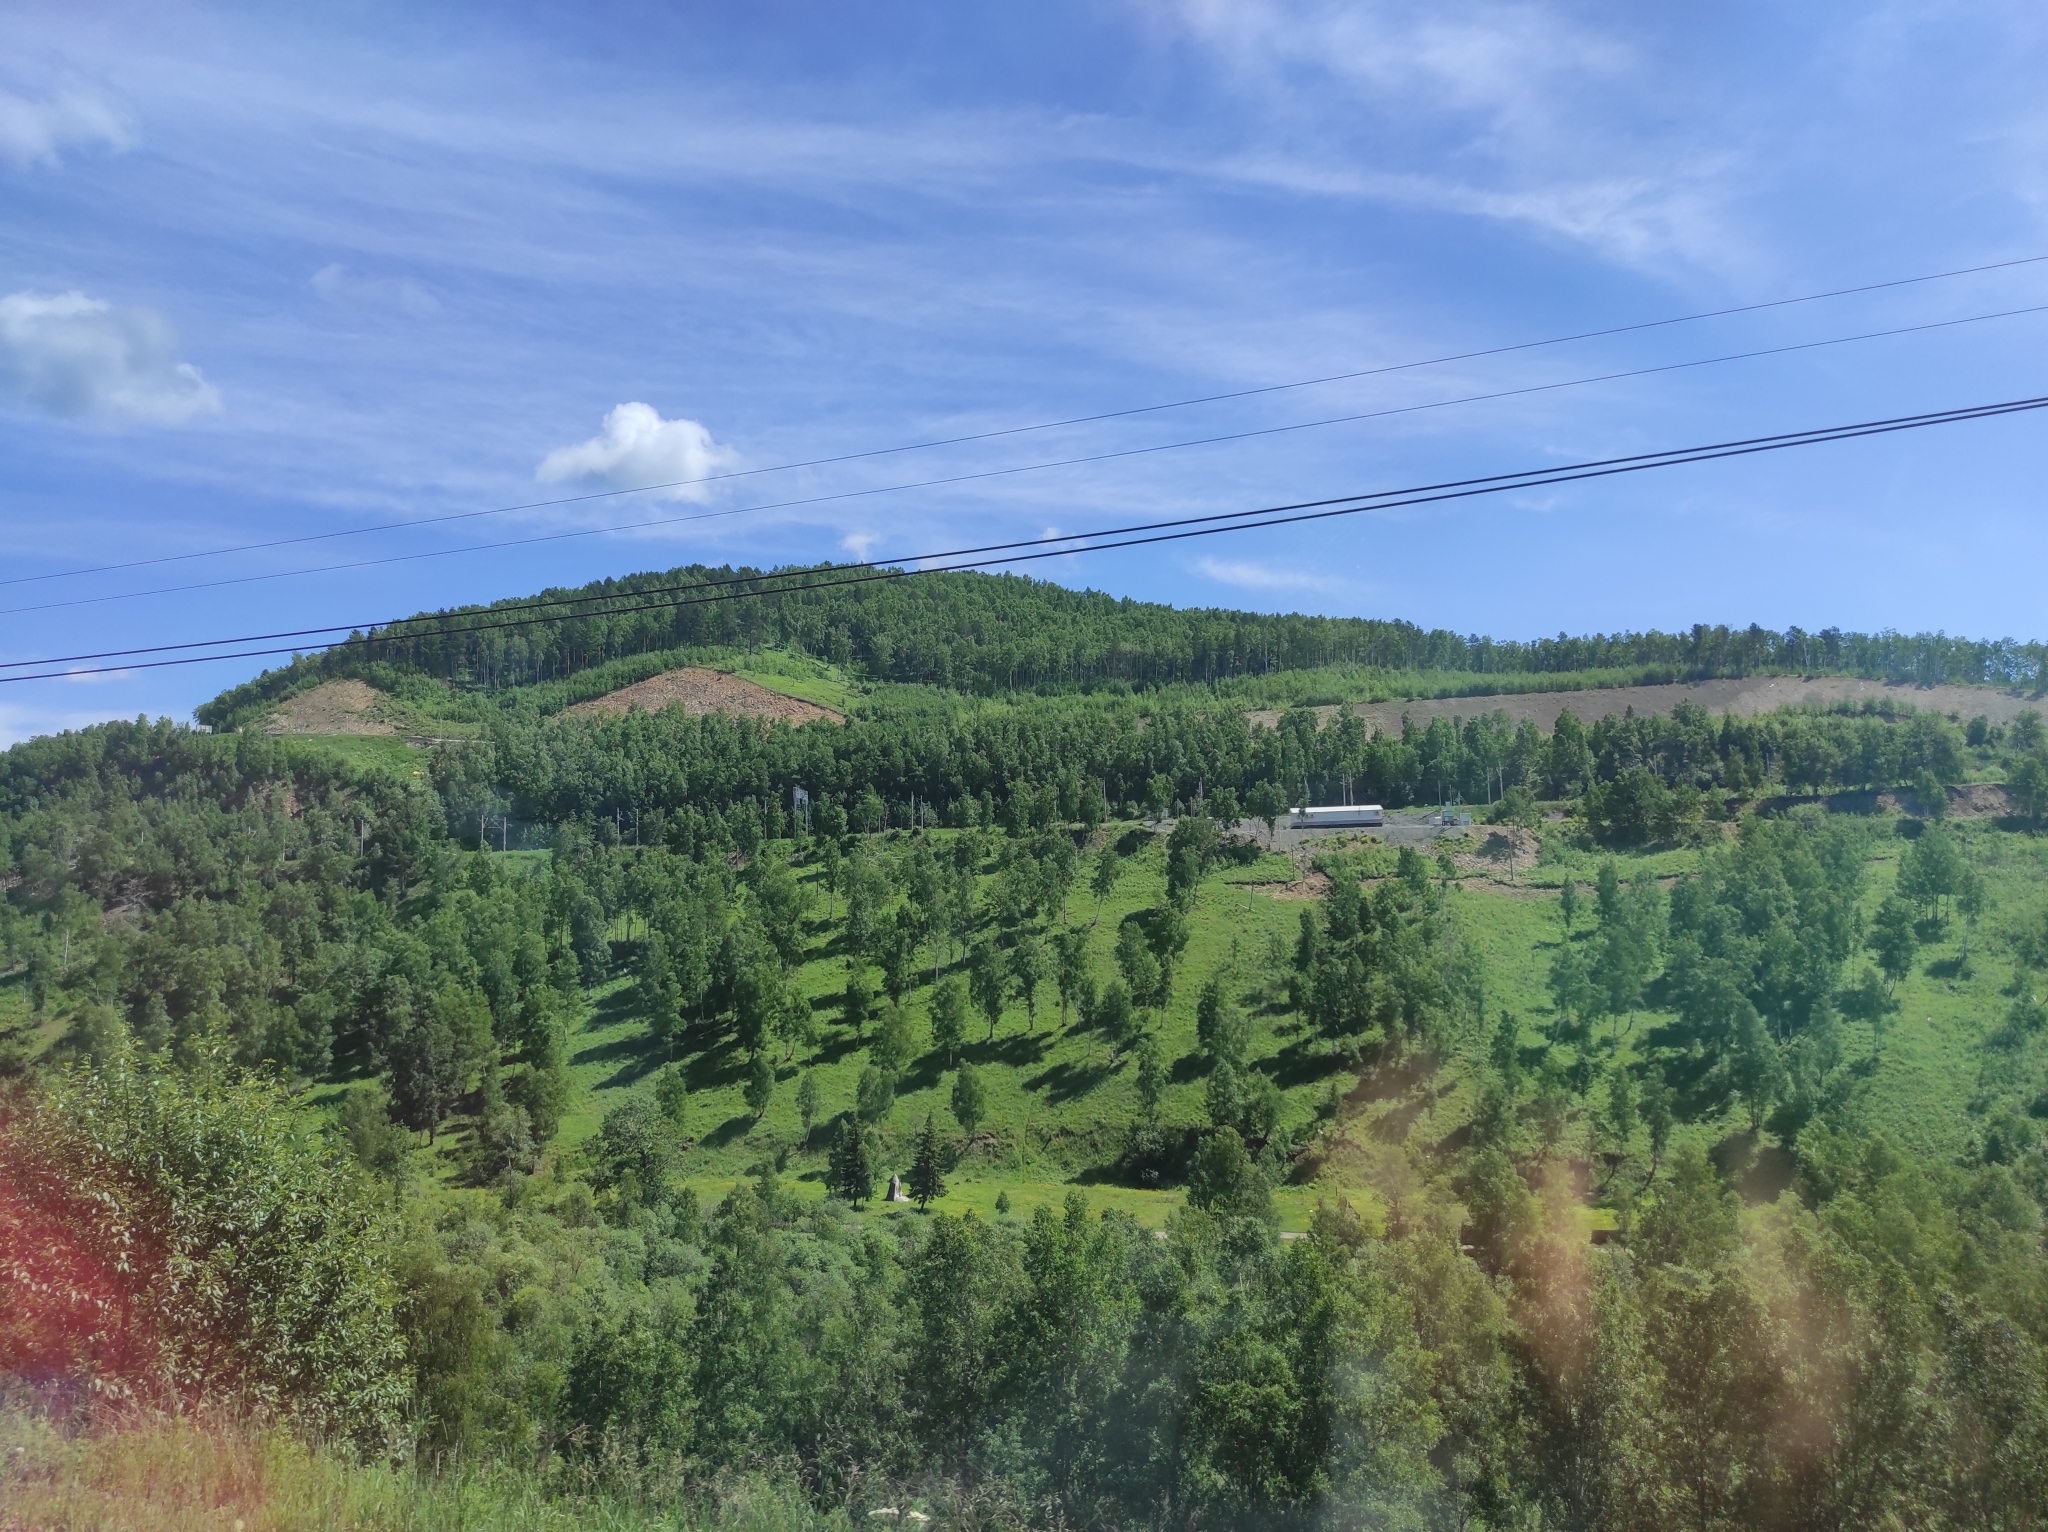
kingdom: Plantae
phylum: Tracheophyta
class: Magnoliopsida
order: Fagales
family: Betulaceae
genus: Betula
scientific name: Betula pendula
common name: Silver birch
